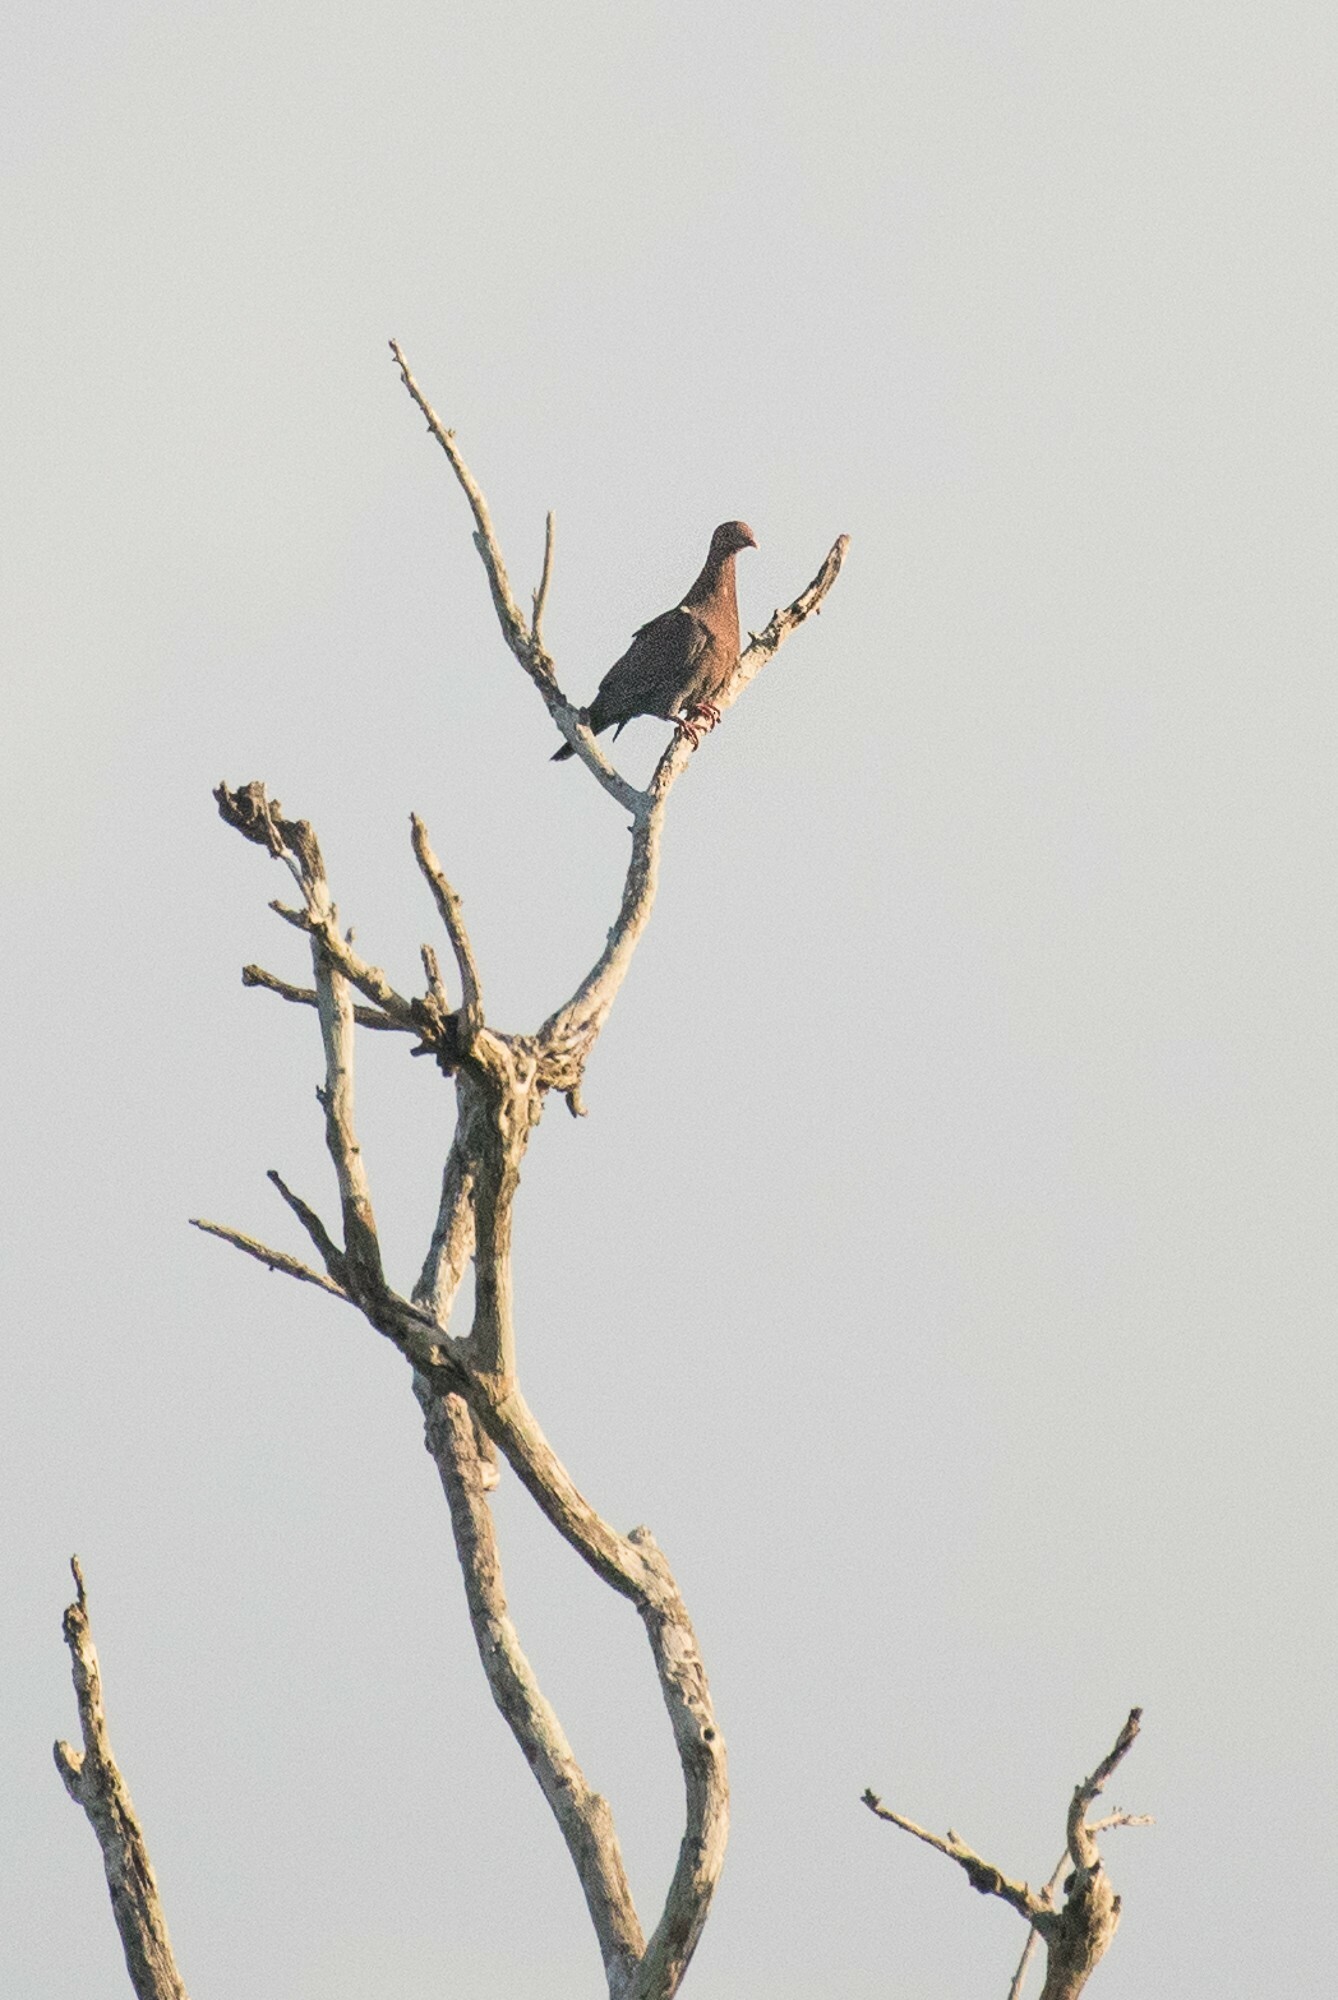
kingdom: Animalia
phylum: Chordata
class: Aves
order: Columbiformes
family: Columbidae
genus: Patagioenas
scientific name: Patagioenas flavirostris
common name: Red-billed pigeon
